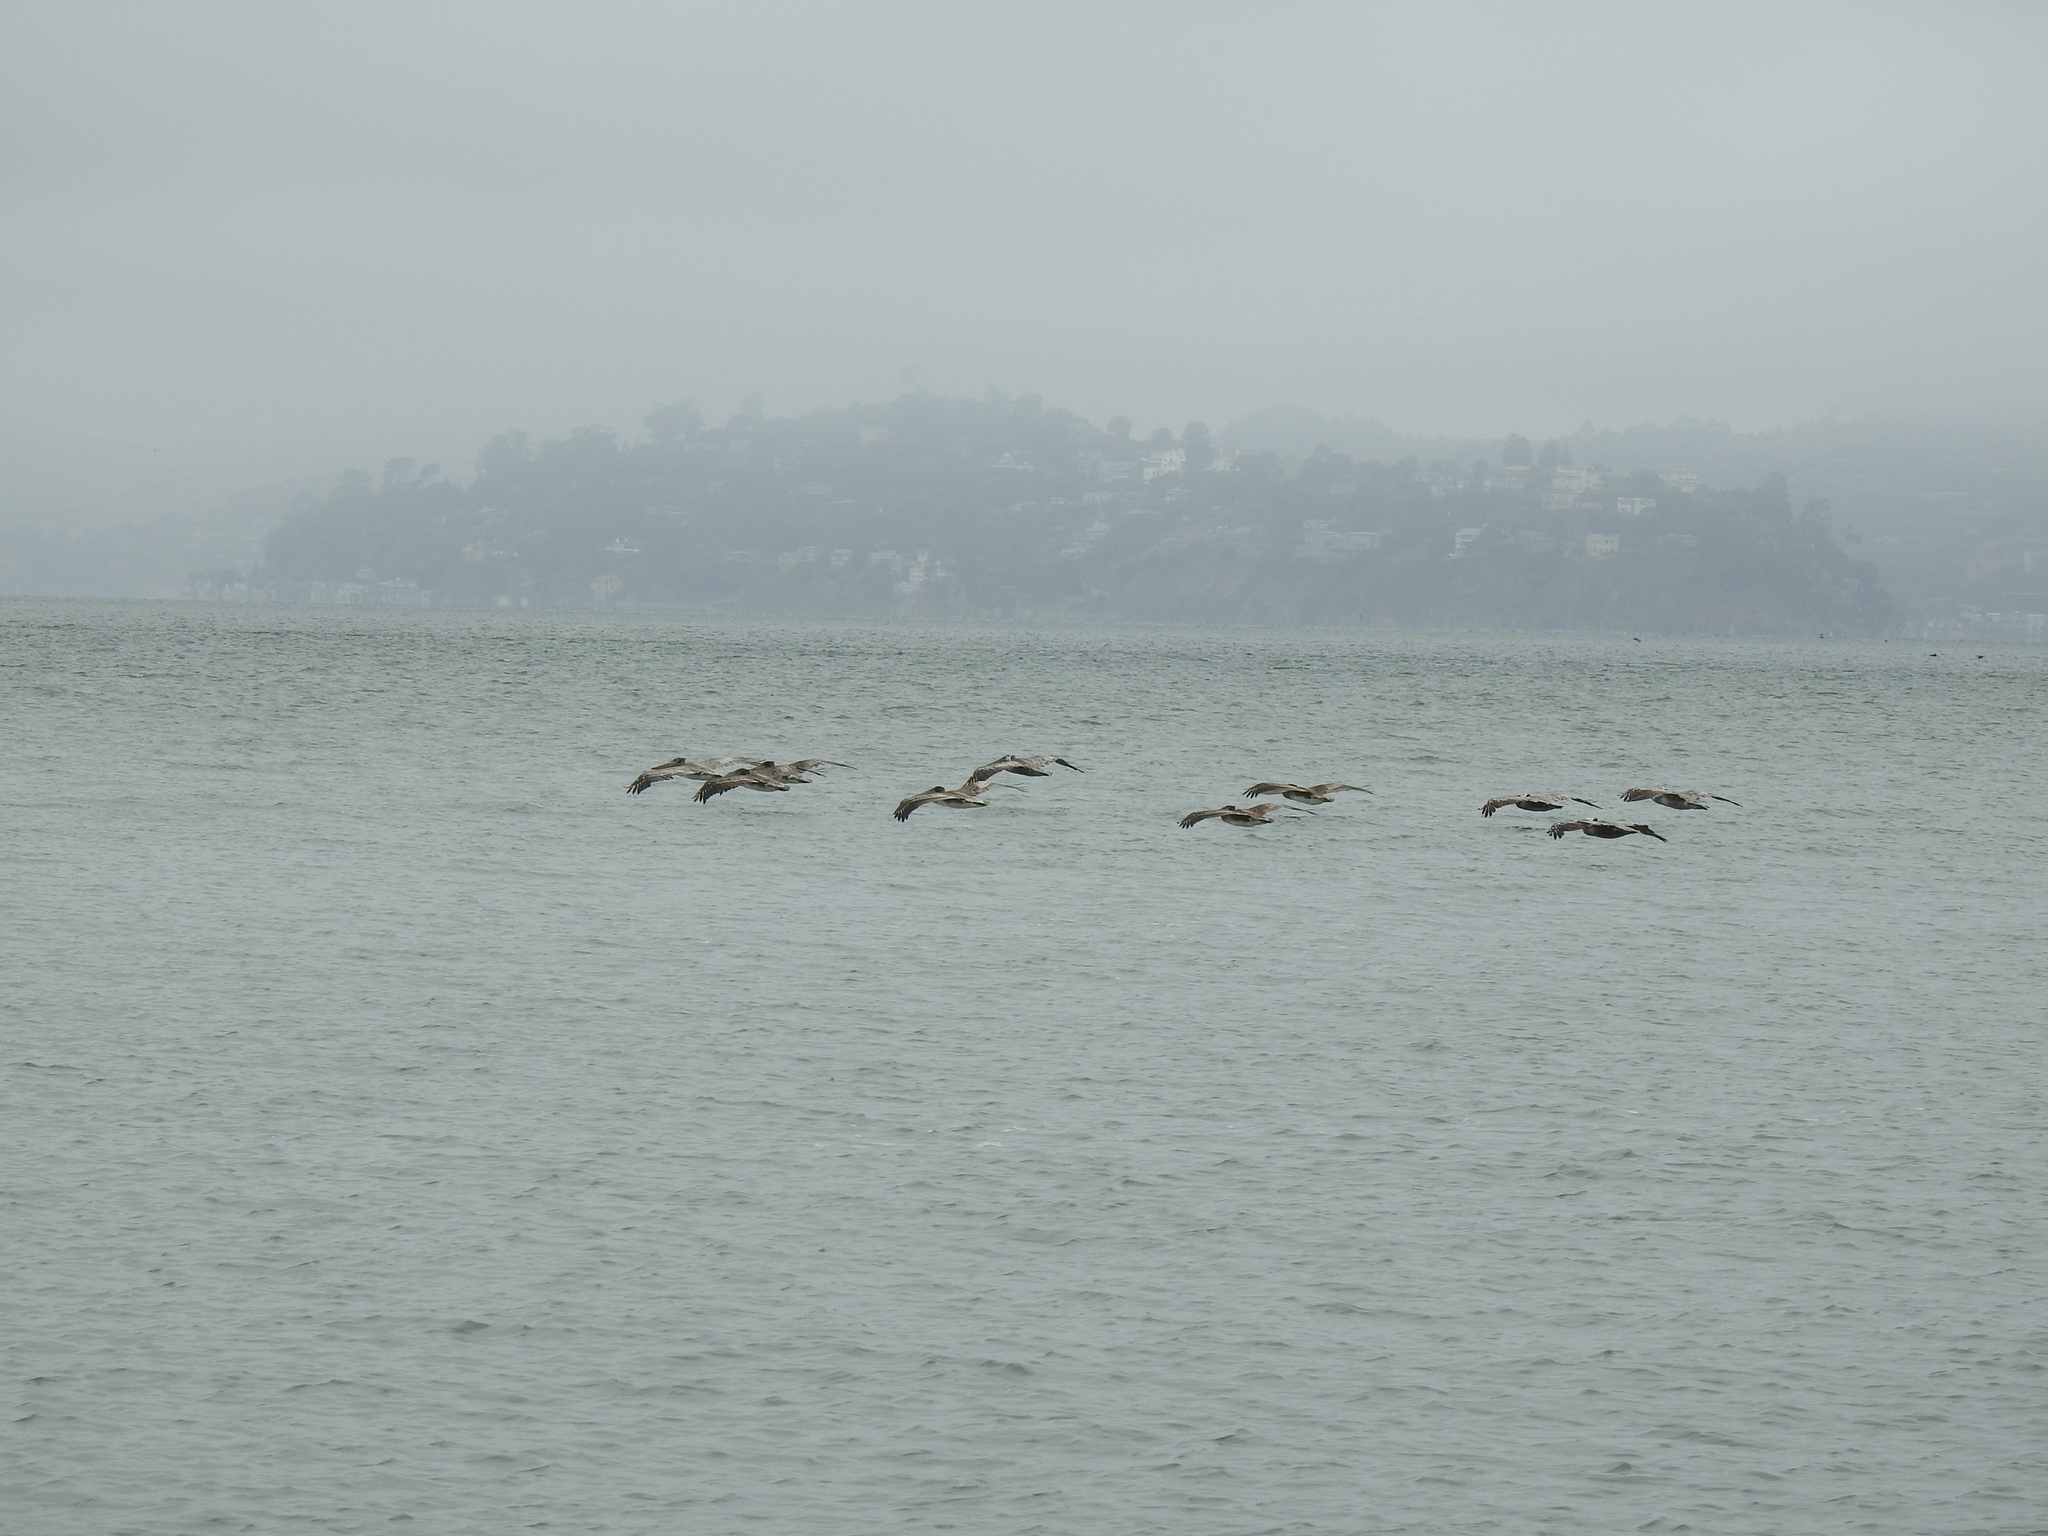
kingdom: Animalia
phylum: Chordata
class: Aves
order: Pelecaniformes
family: Pelecanidae
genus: Pelecanus
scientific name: Pelecanus occidentalis
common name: Brown pelican
